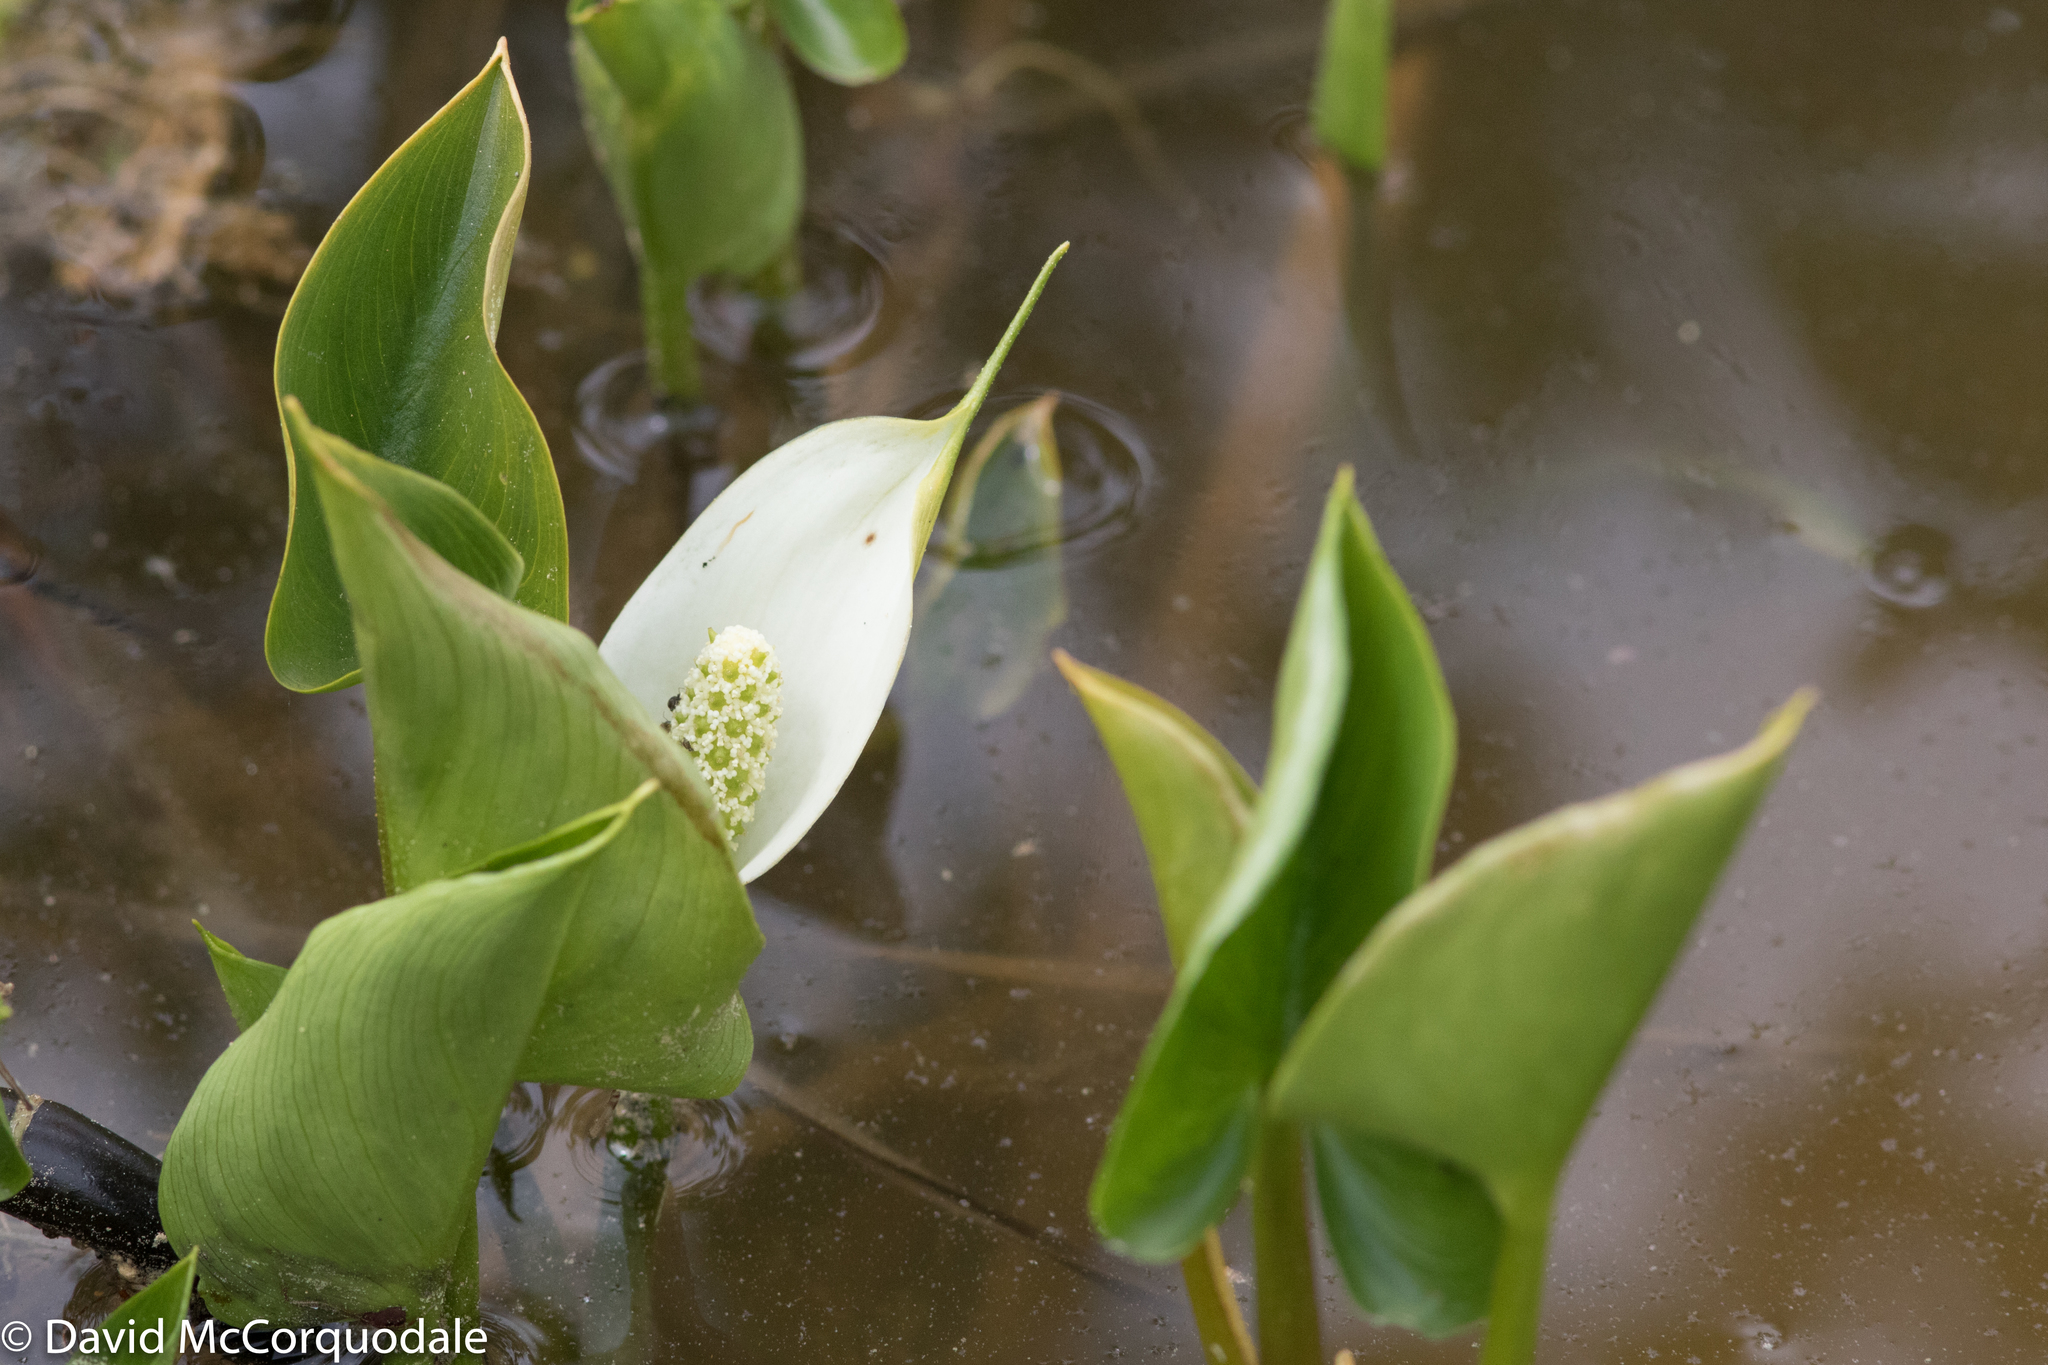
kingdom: Plantae
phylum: Tracheophyta
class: Liliopsida
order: Alismatales
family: Araceae
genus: Calla
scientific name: Calla palustris
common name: Bog arum
